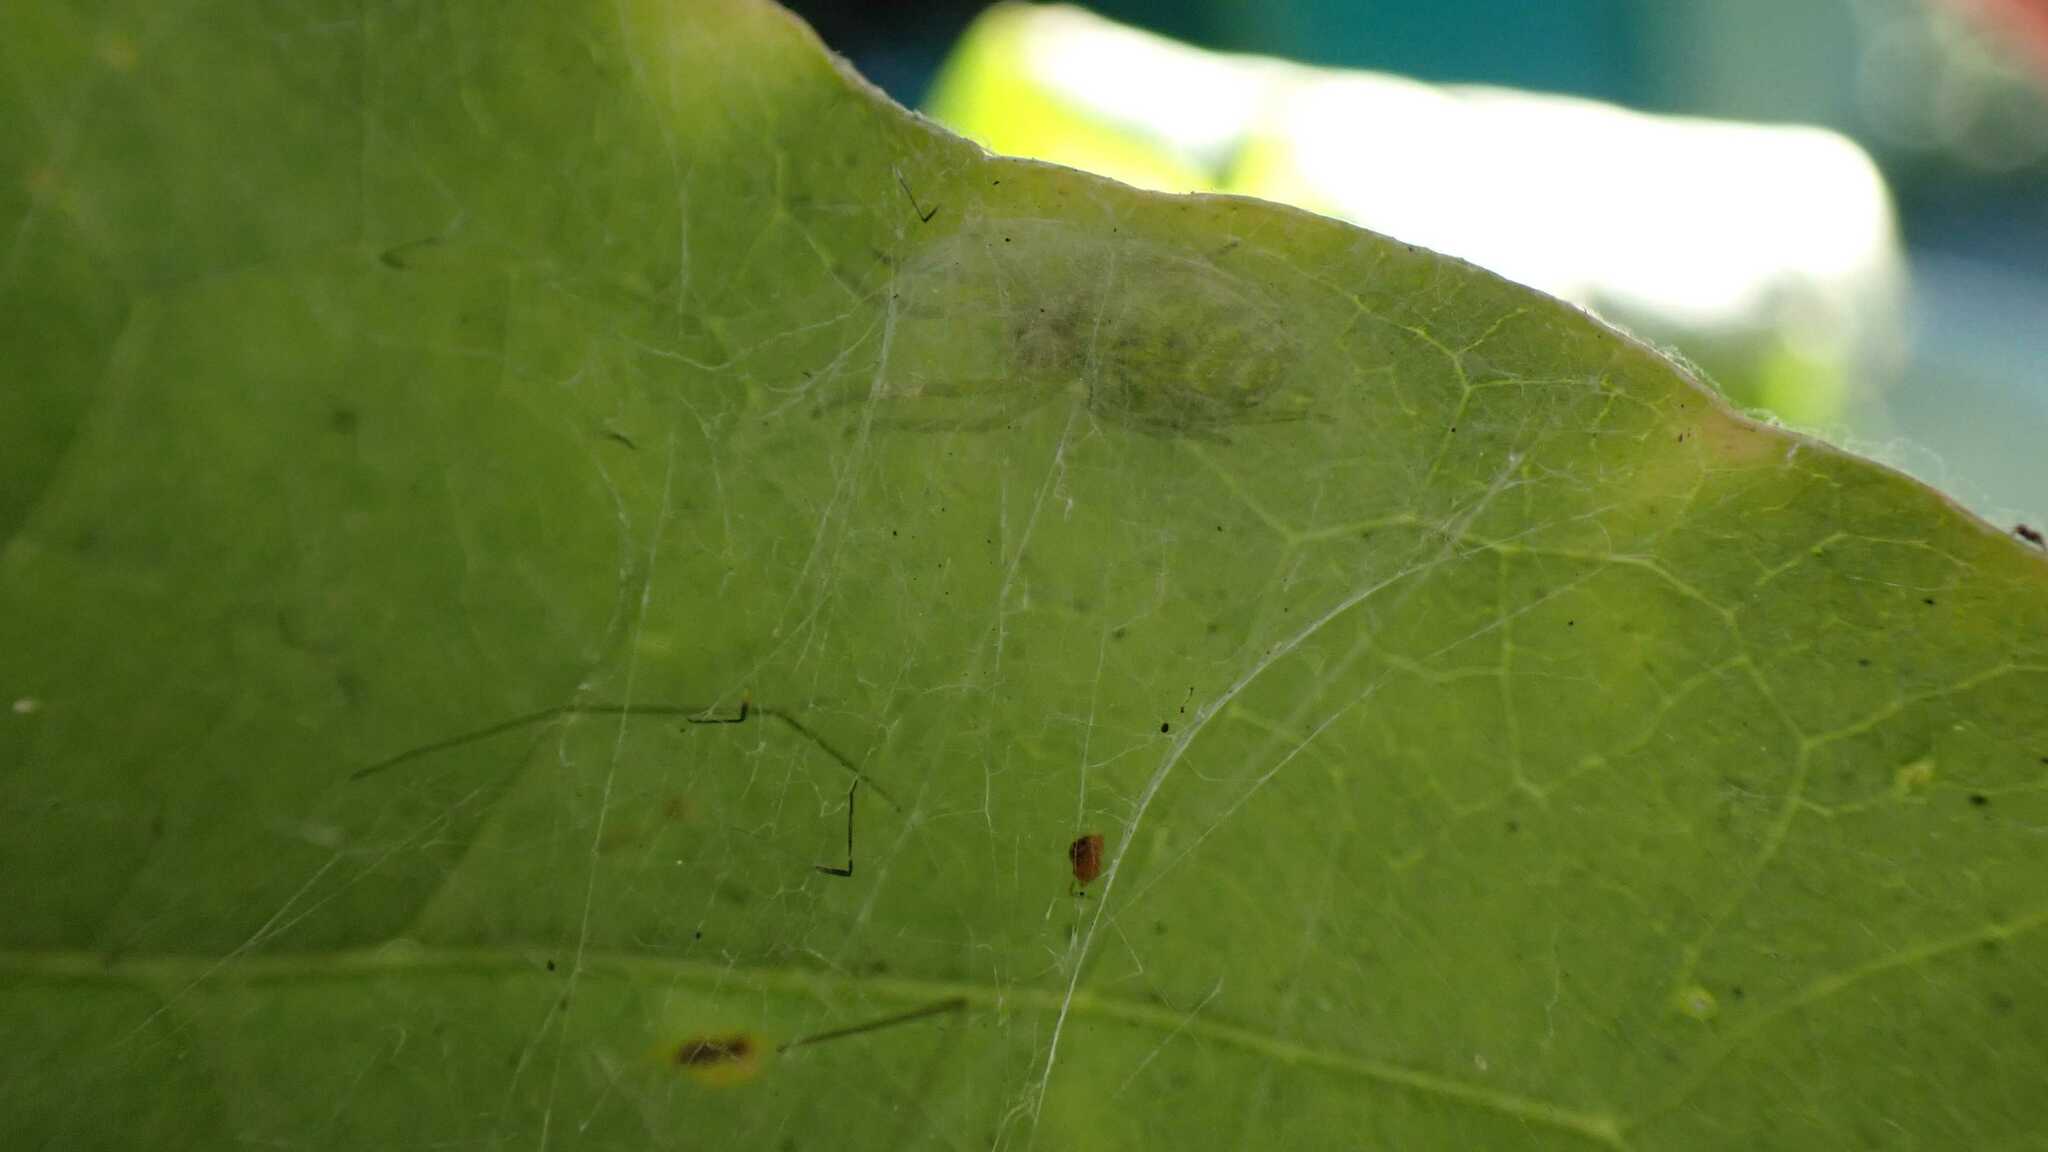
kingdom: Animalia
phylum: Arthropoda
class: Arachnida
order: Araneae
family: Dictynidae
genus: Nigma
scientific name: Nigma walckenaeri
